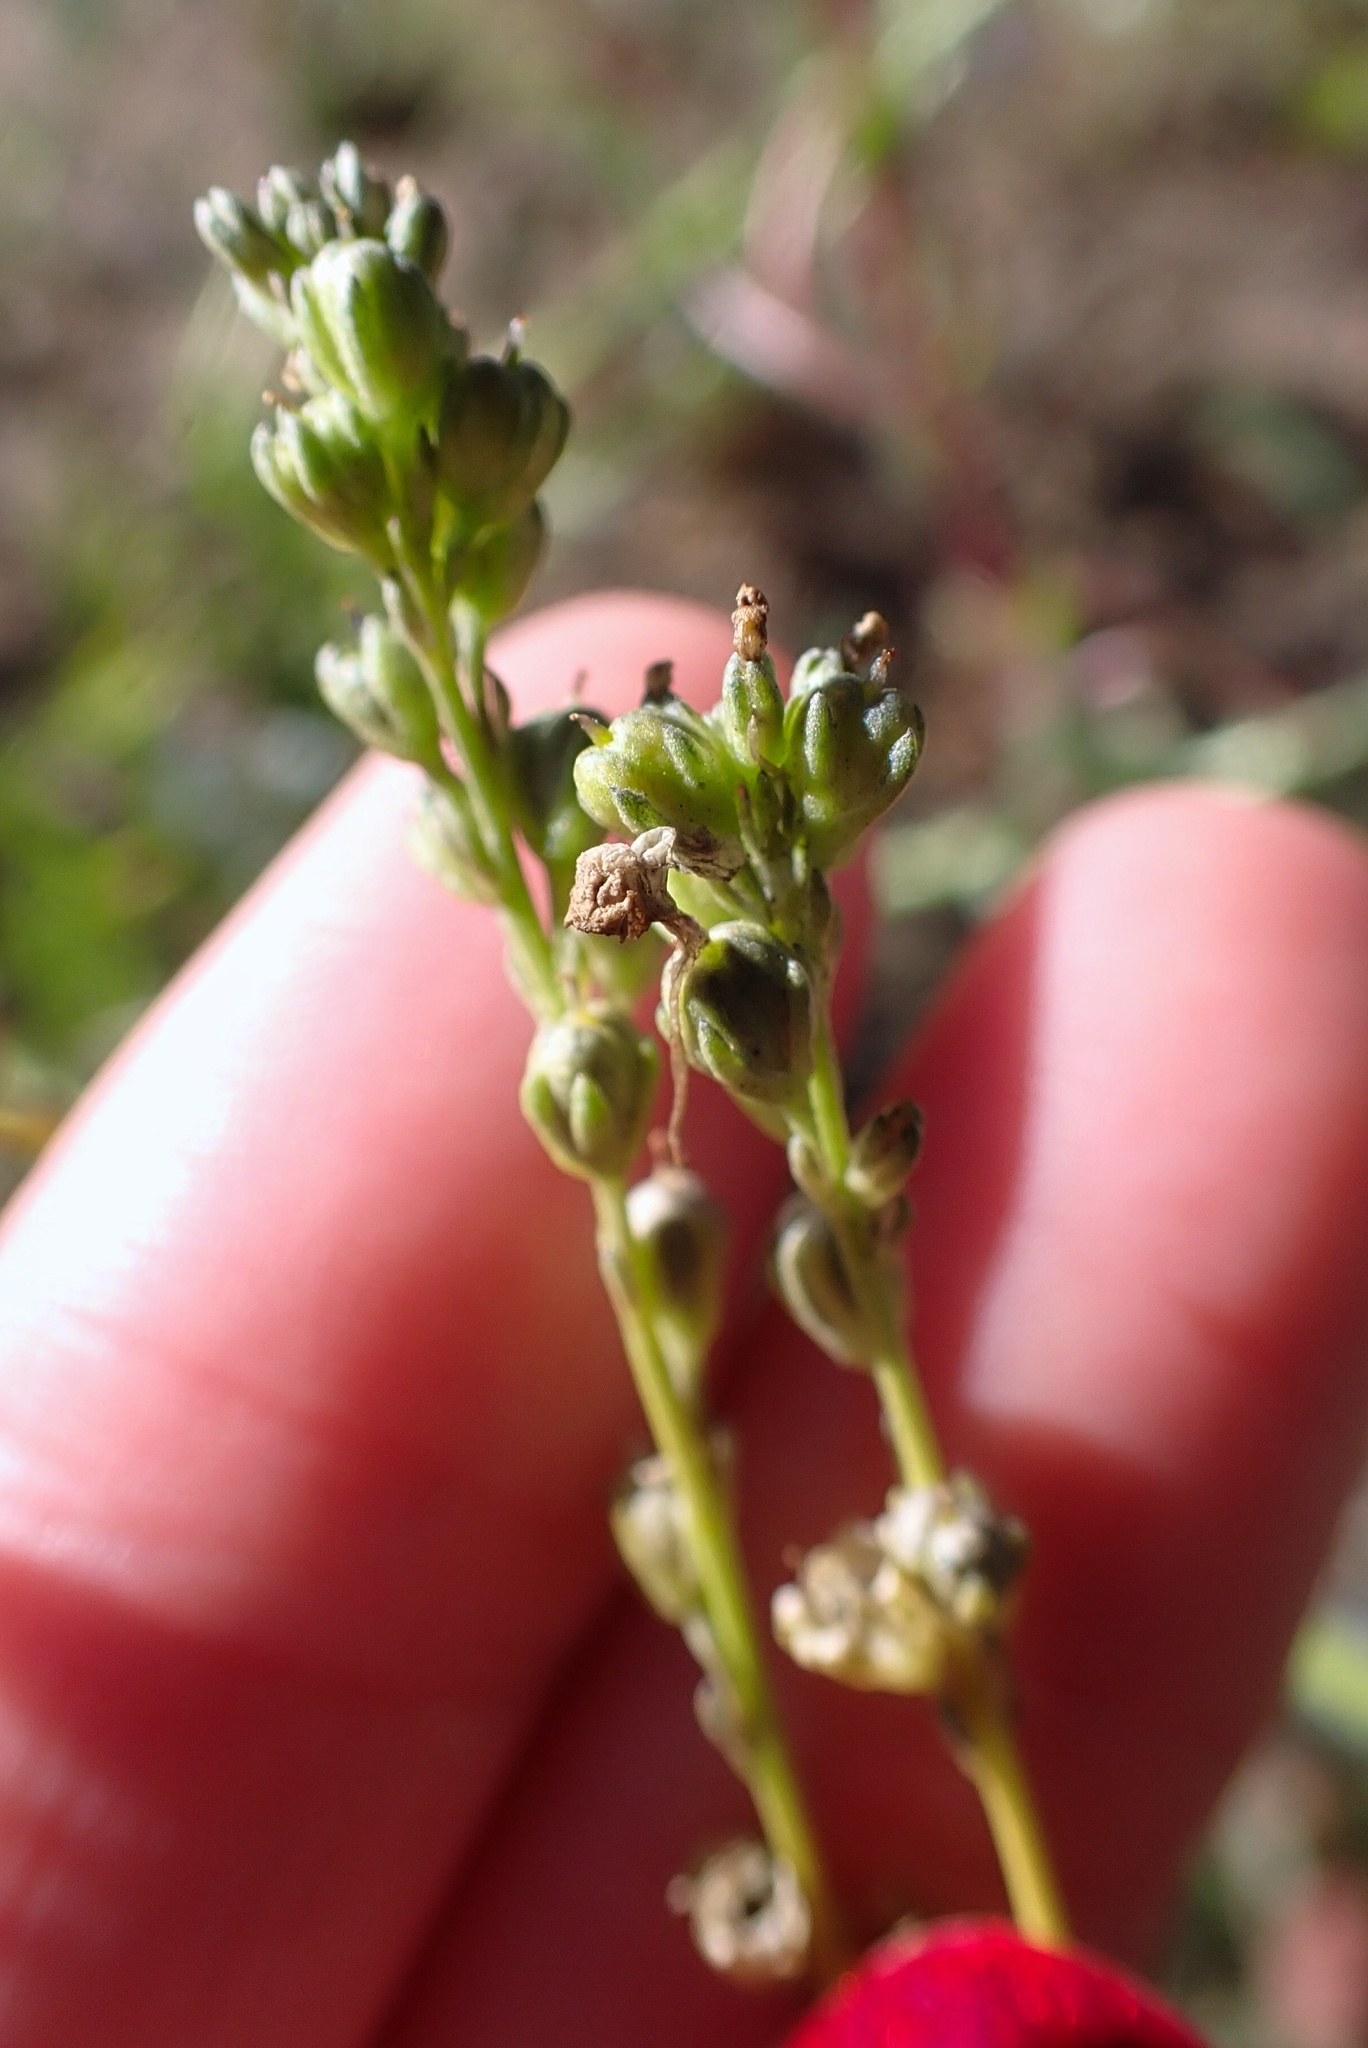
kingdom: Plantae
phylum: Tracheophyta
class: Magnoliopsida
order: Lamiales
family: Plantaginaceae
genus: Nuttallanthus
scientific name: Nuttallanthus texanus
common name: Texas toadflax
